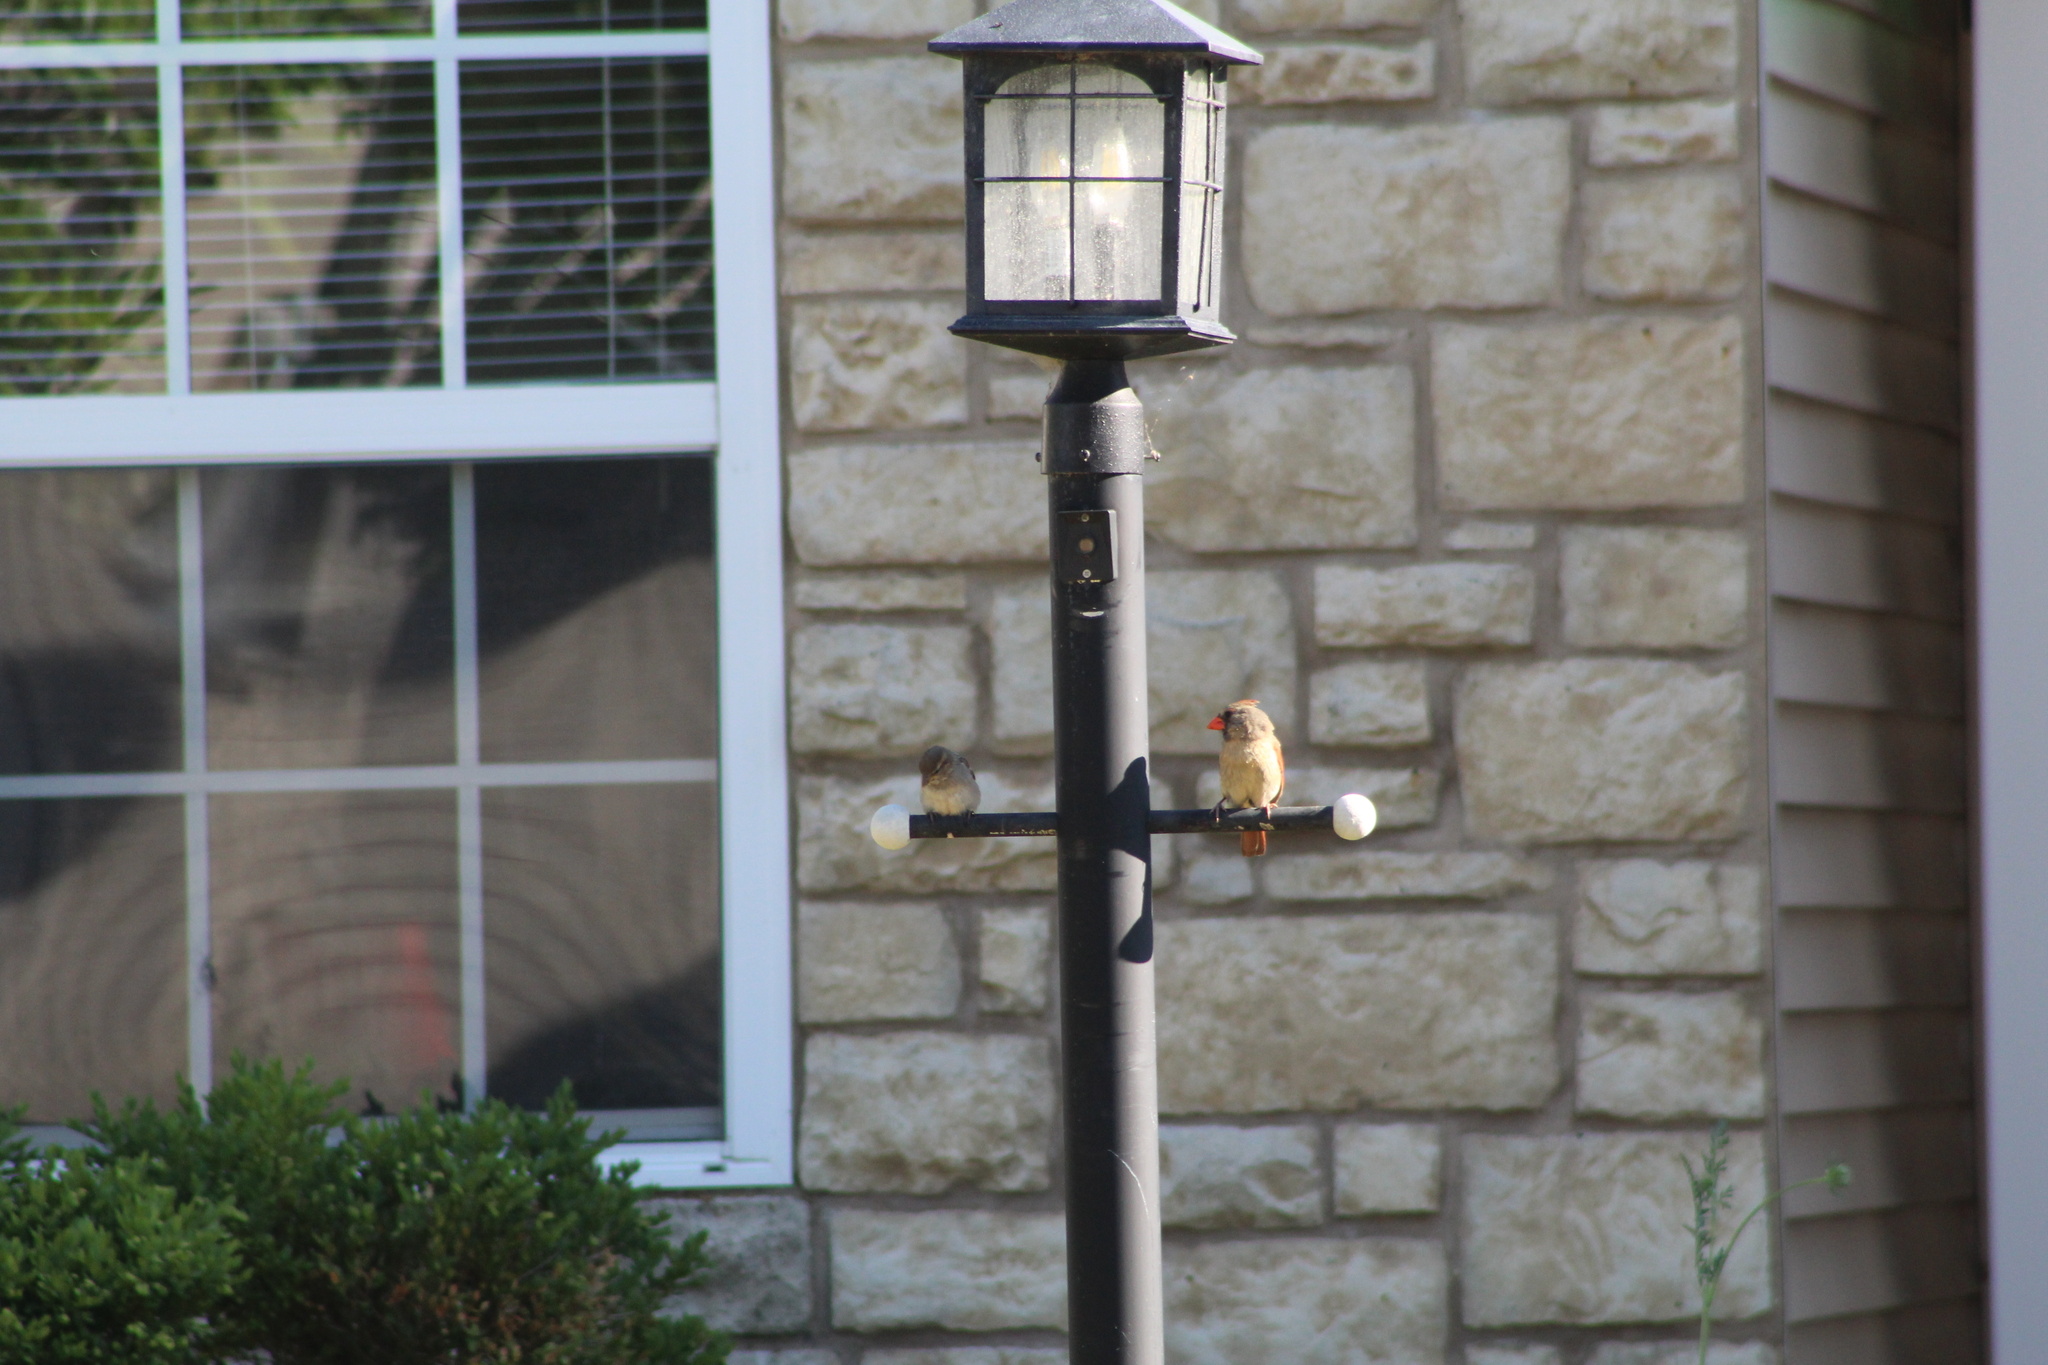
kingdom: Animalia
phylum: Chordata
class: Aves
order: Passeriformes
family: Cardinalidae
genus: Cardinalis
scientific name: Cardinalis cardinalis
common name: Northern cardinal
